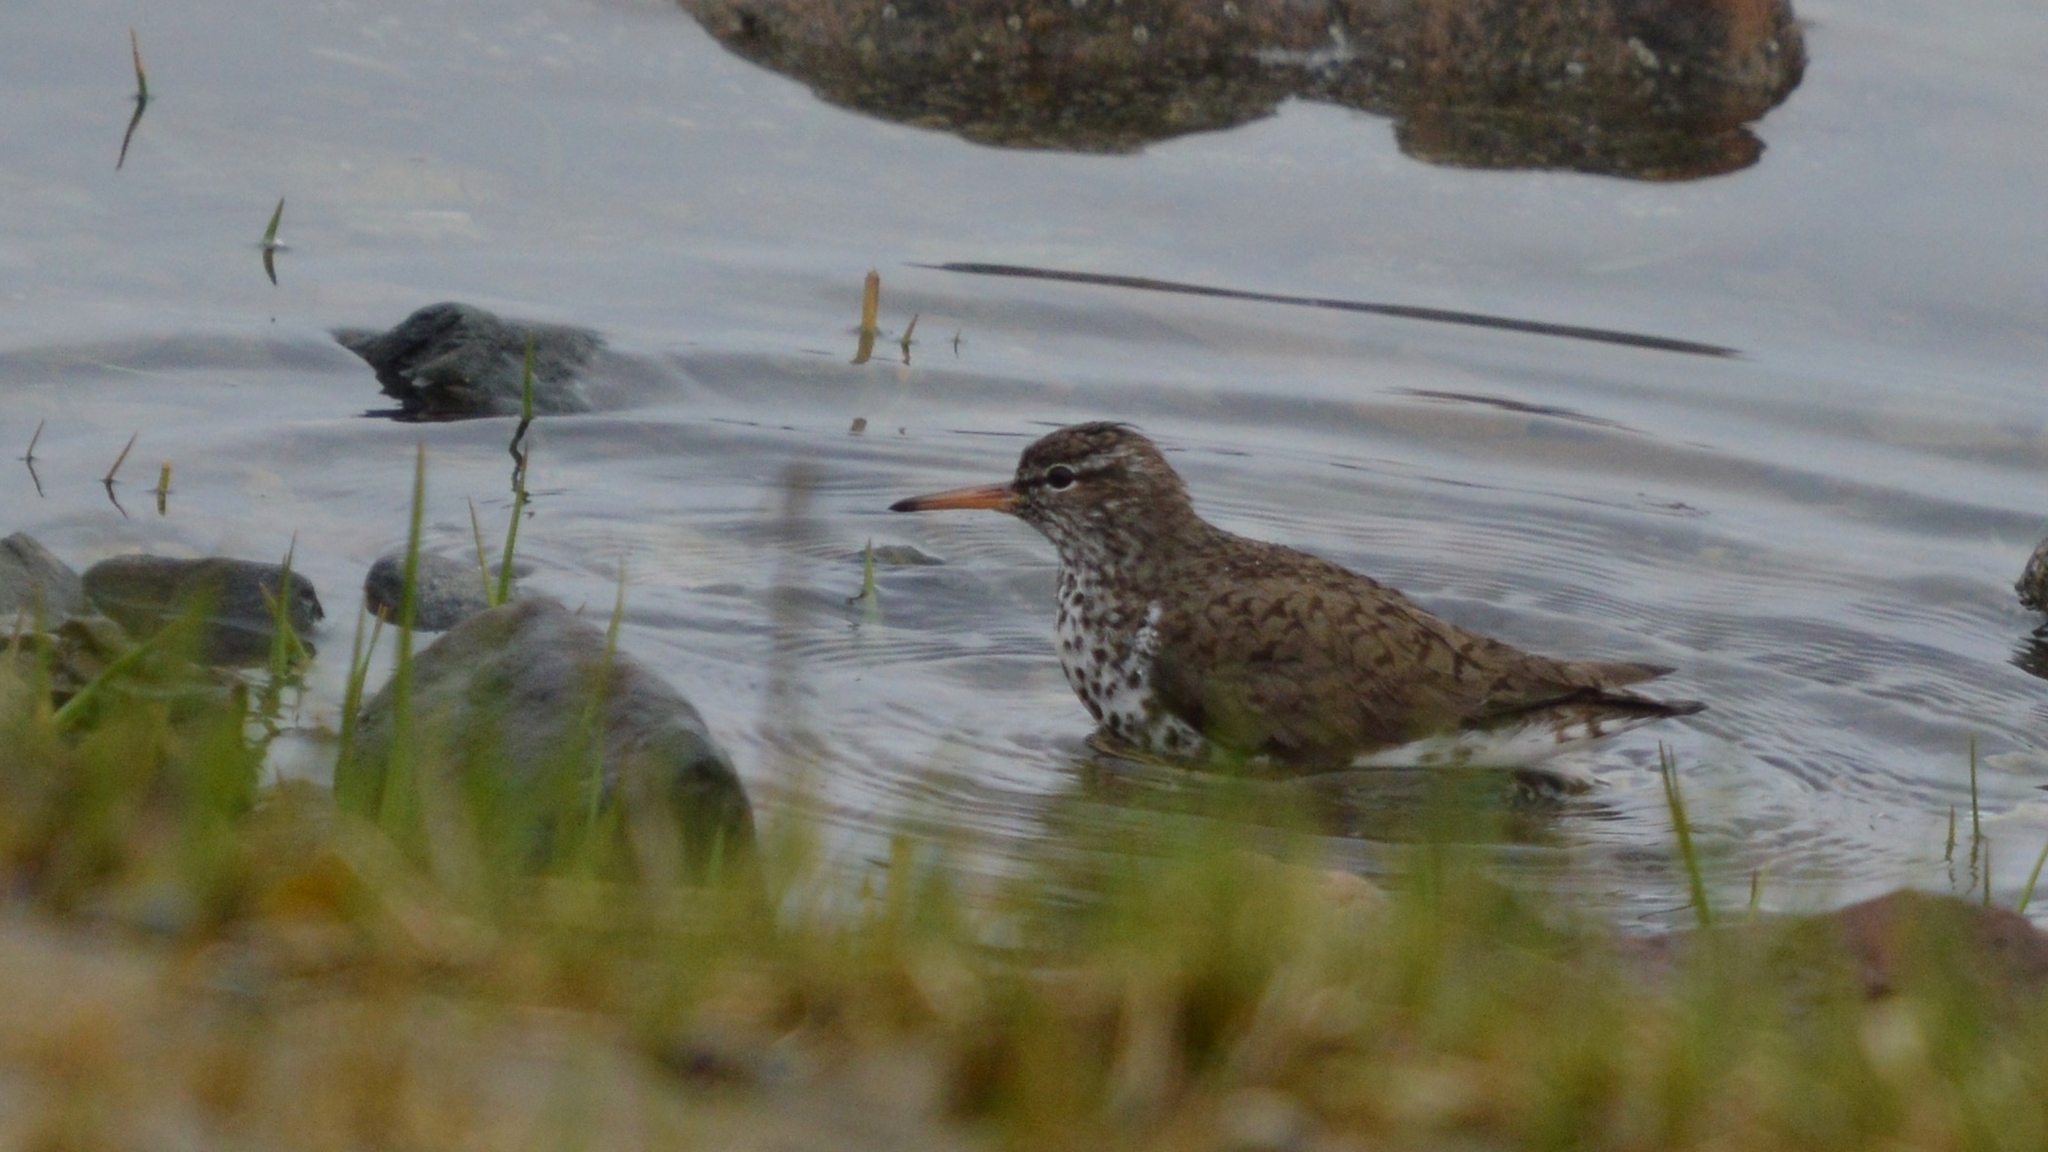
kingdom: Animalia
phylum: Chordata
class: Aves
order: Charadriiformes
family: Scolopacidae
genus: Actitis
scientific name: Actitis macularius
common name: Spotted sandpiper
